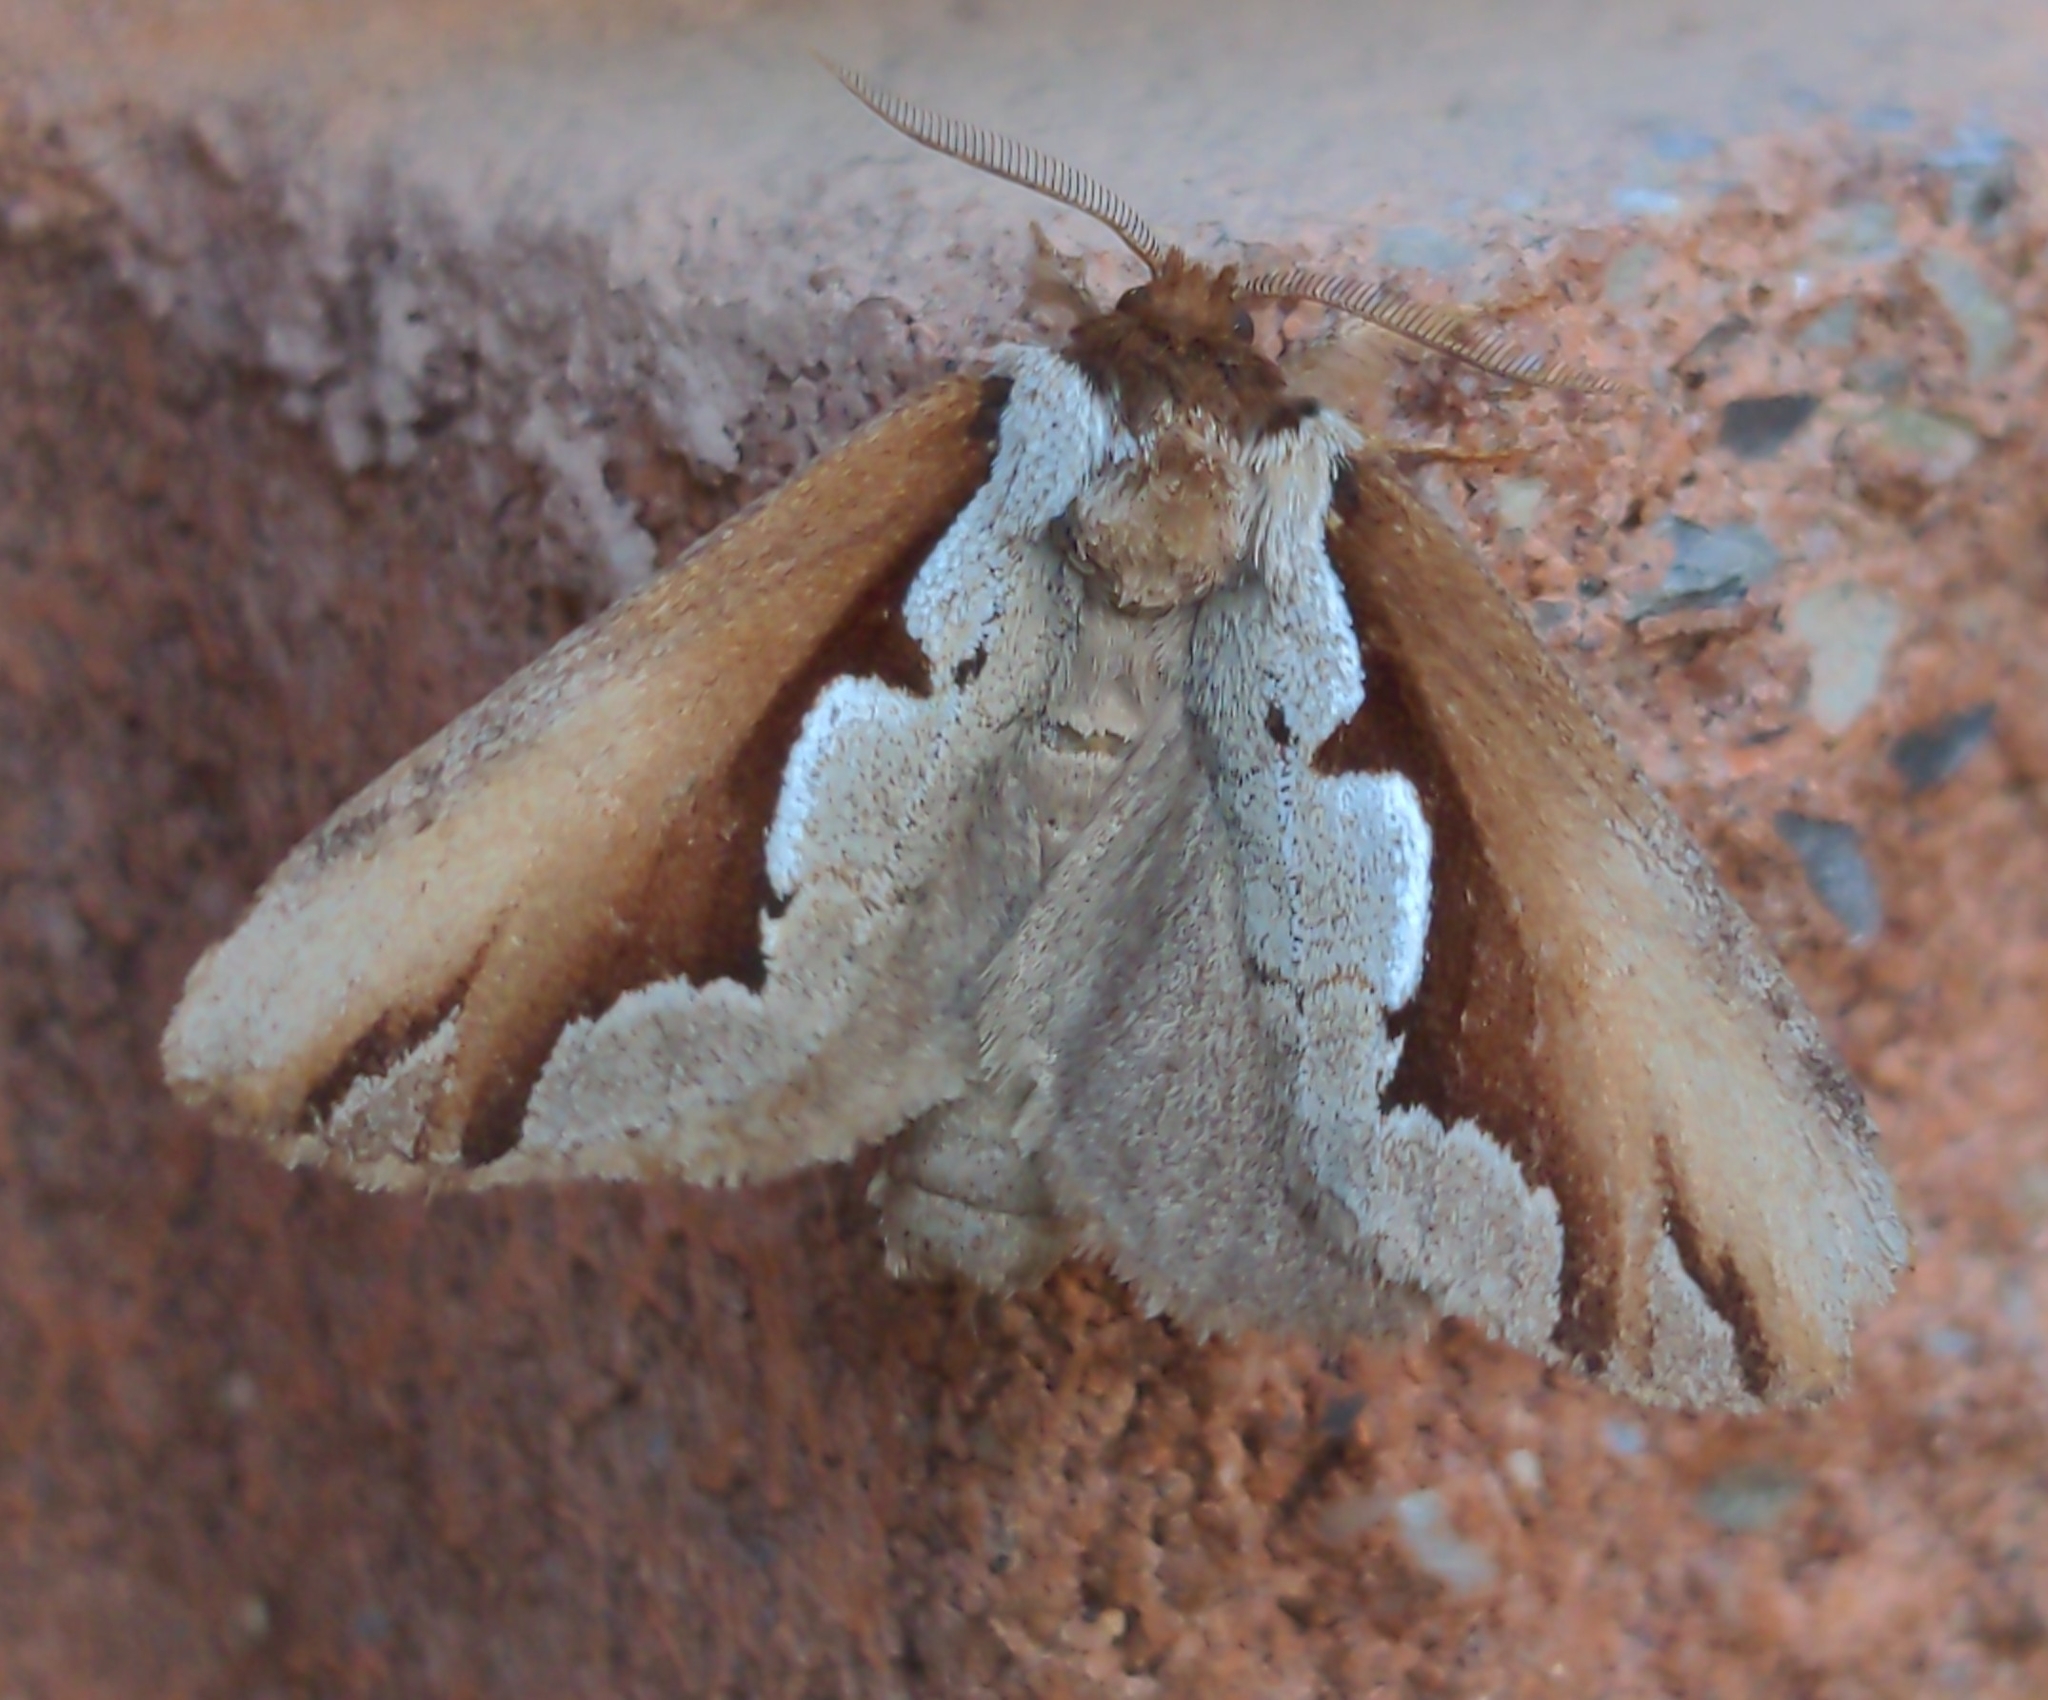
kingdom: Animalia
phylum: Arthropoda
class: Insecta
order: Lepidoptera
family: Notodontidae
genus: Nerice
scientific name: Nerice bidentata
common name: Double-toothed prominent
